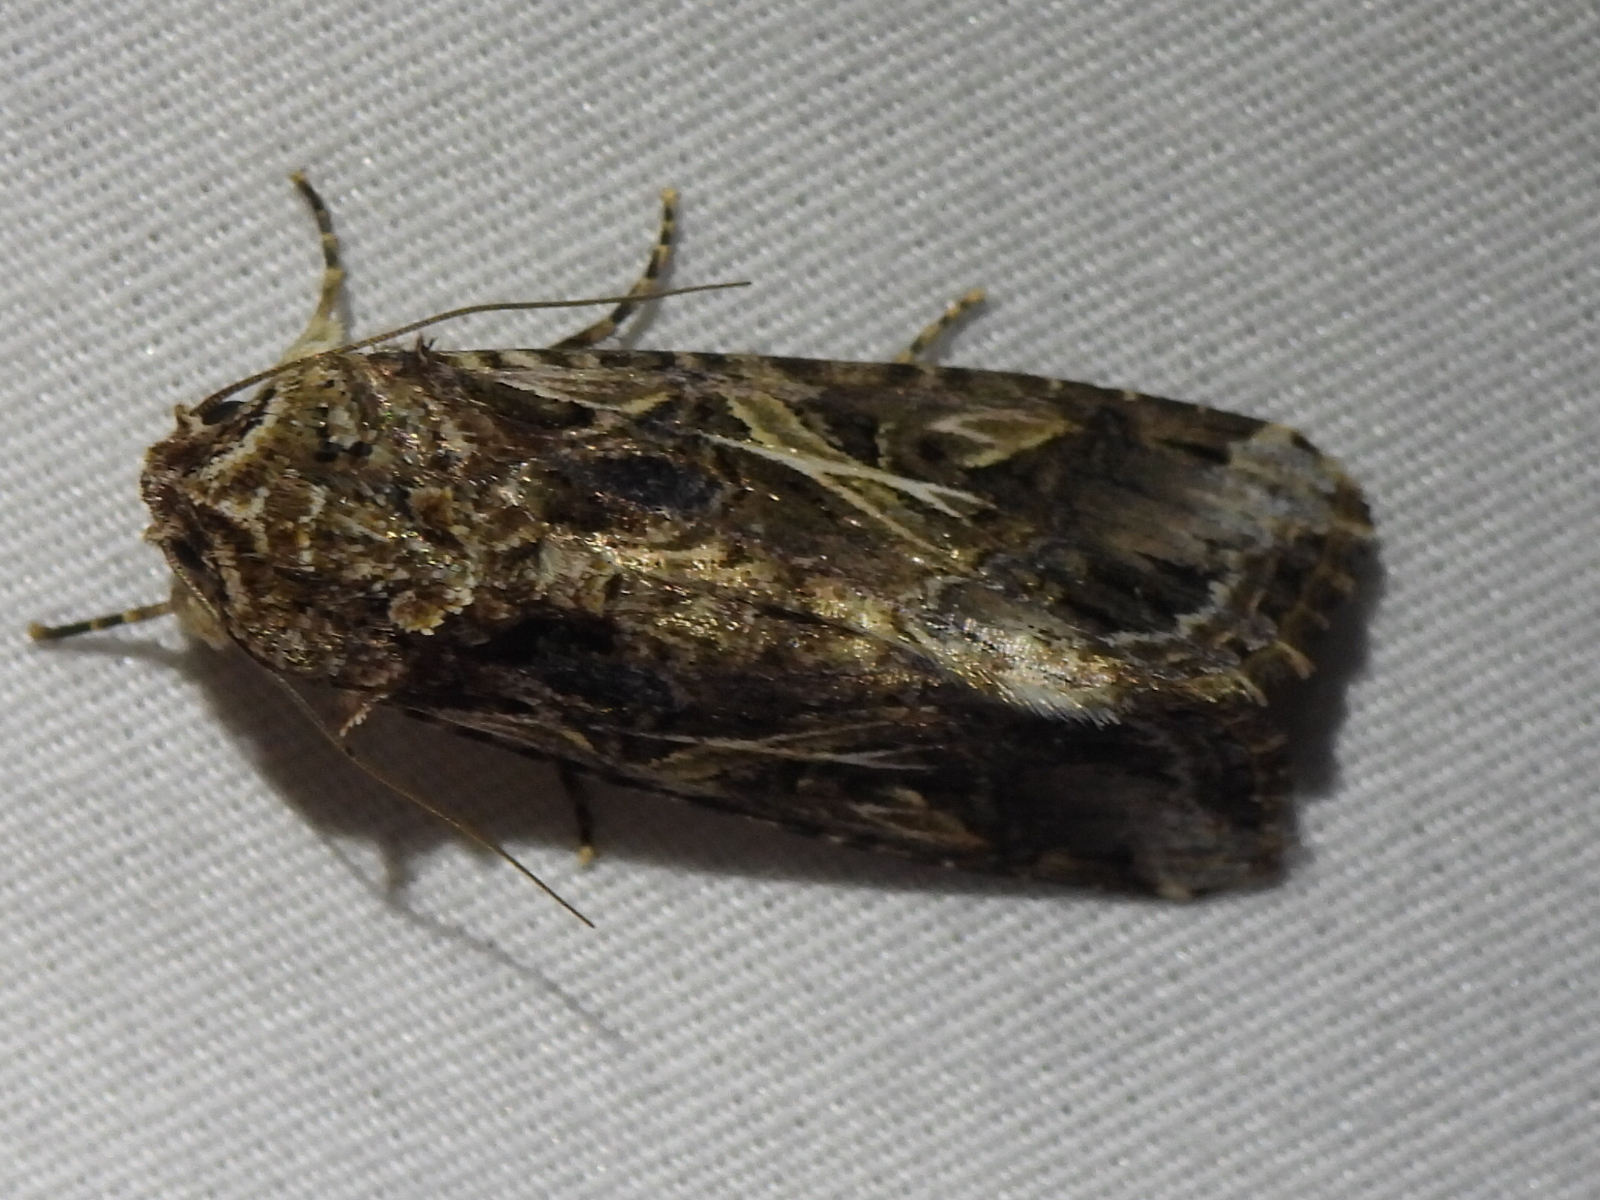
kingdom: Animalia
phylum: Arthropoda
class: Insecta
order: Lepidoptera
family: Noctuidae
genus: Spodoptera
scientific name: Spodoptera ornithogalli
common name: Yellow-striped armyworm
